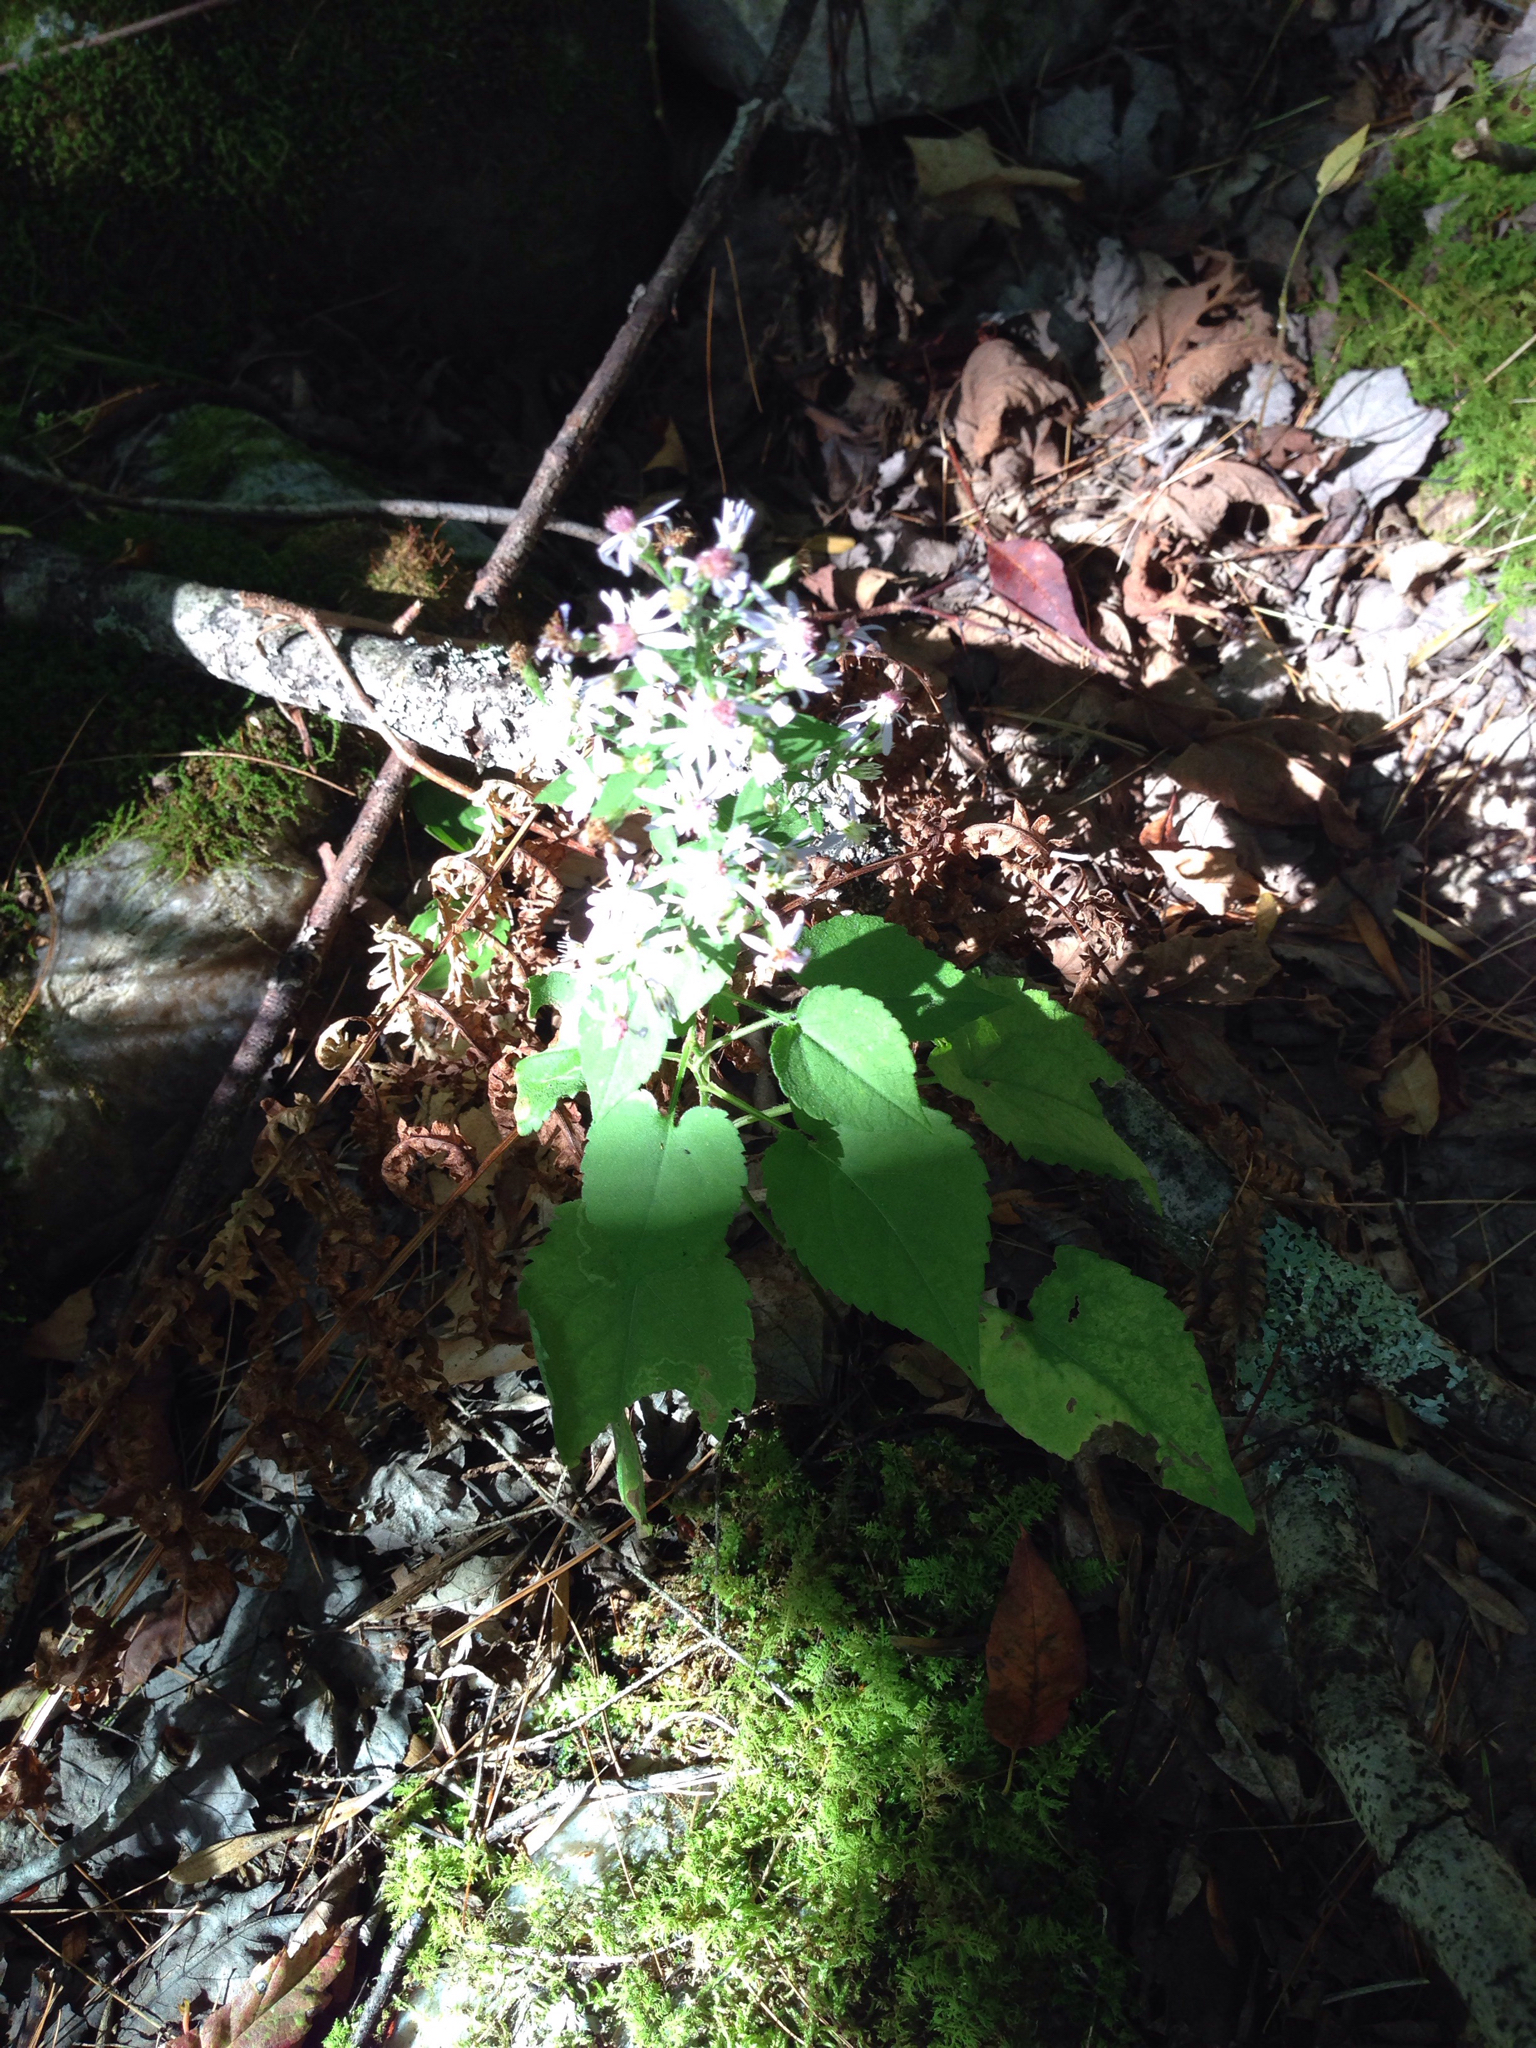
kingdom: Plantae
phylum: Tracheophyta
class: Magnoliopsida
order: Asterales
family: Asteraceae
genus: Symphyotrichum
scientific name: Symphyotrichum cordifolium
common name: Beeweed
